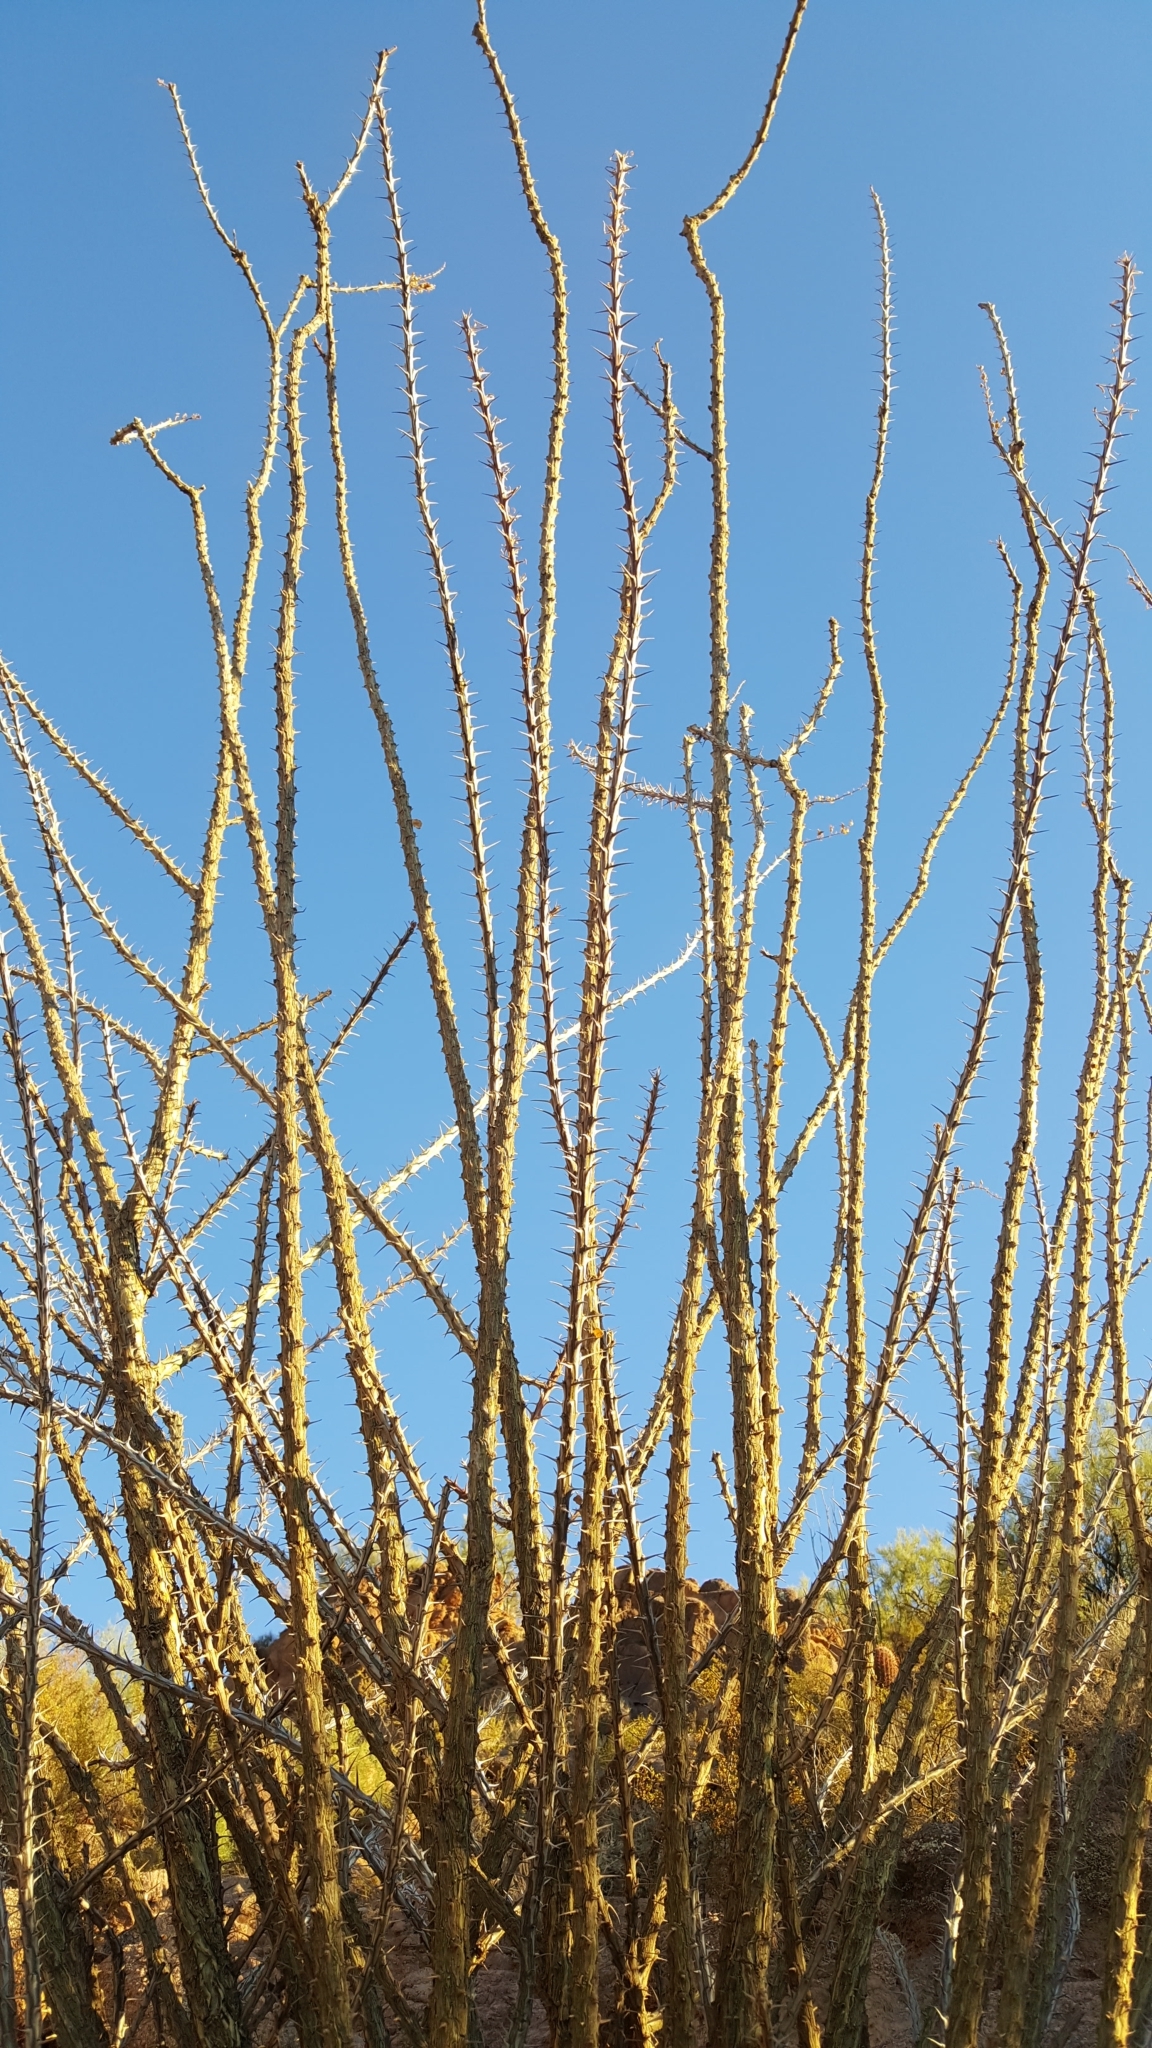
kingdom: Plantae
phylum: Tracheophyta
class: Magnoliopsida
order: Ericales
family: Fouquieriaceae
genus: Fouquieria
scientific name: Fouquieria splendens
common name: Vine-cactus
